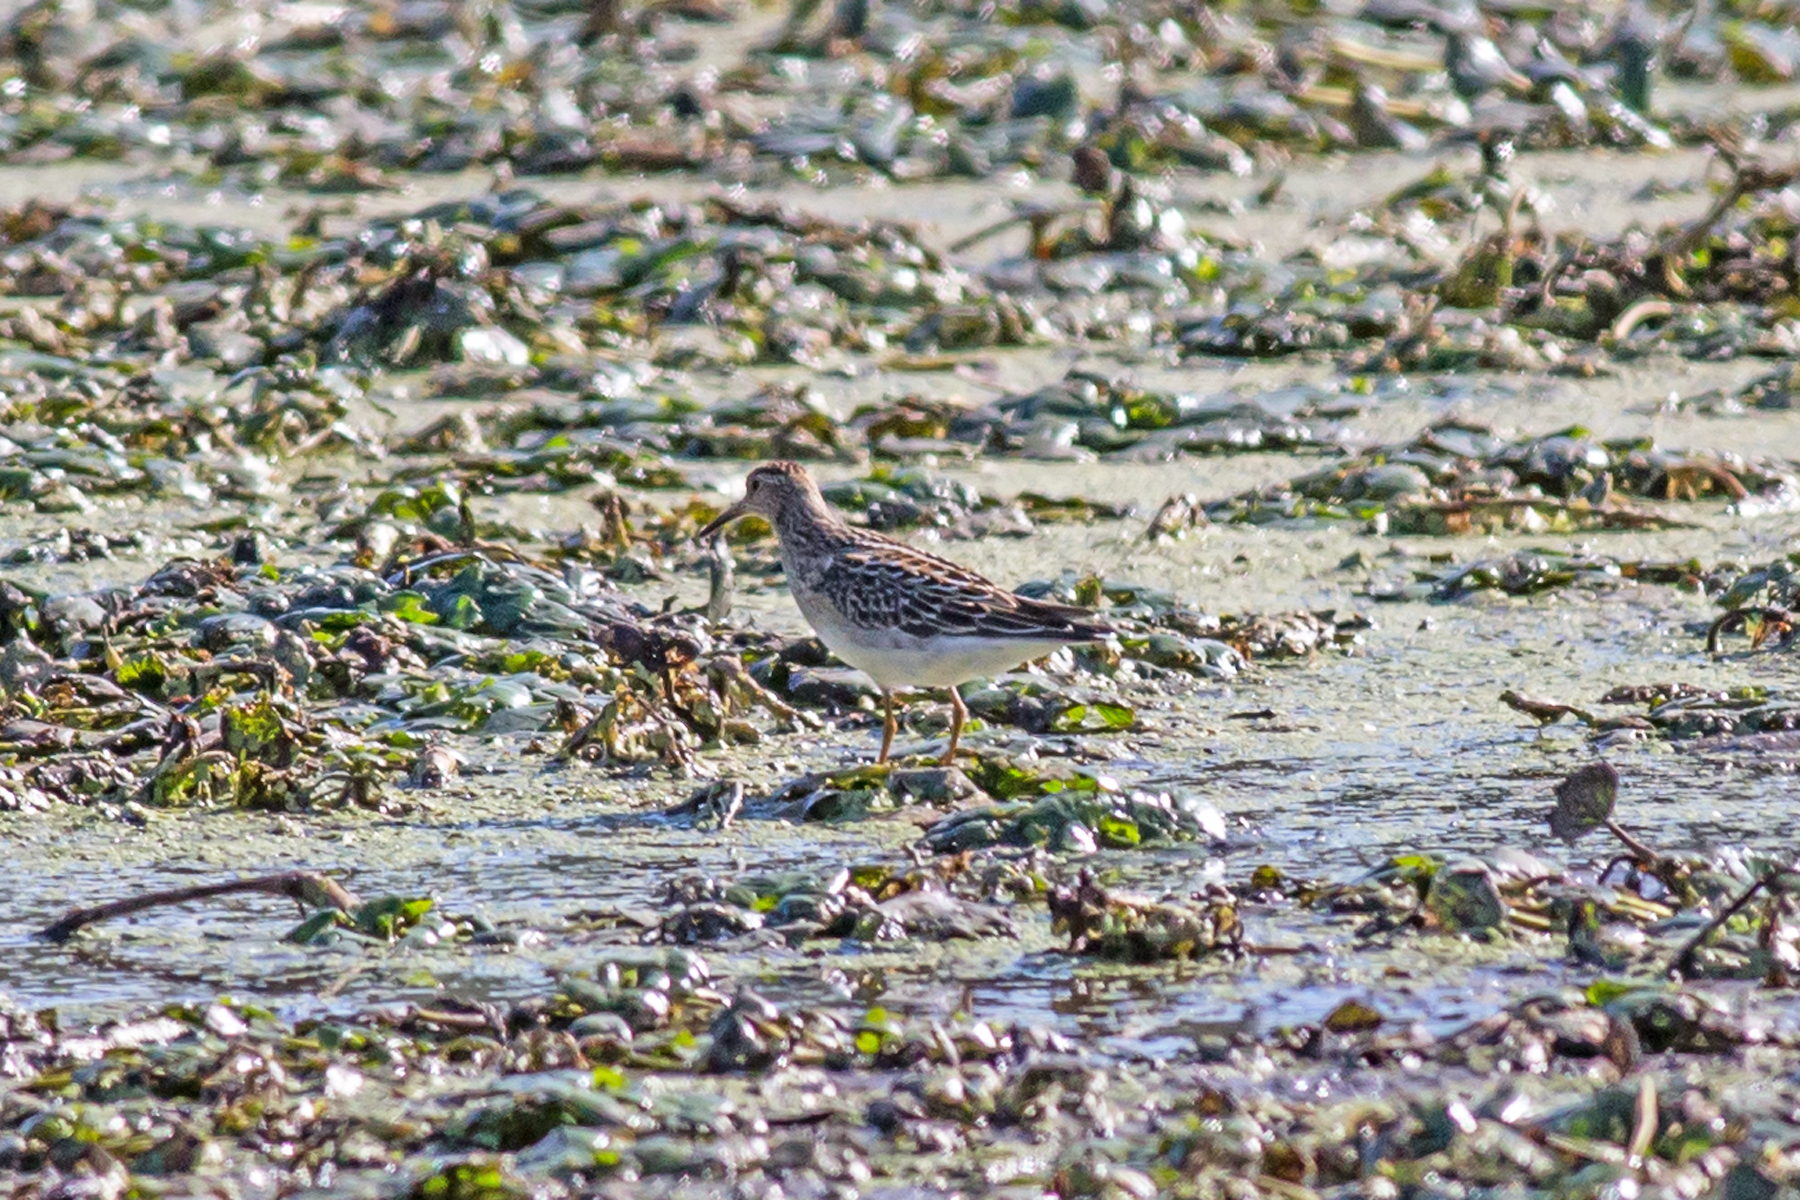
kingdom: Animalia
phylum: Chordata
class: Aves
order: Charadriiformes
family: Scolopacidae
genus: Calidris
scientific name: Calidris melanotos
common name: Pectoral sandpiper
